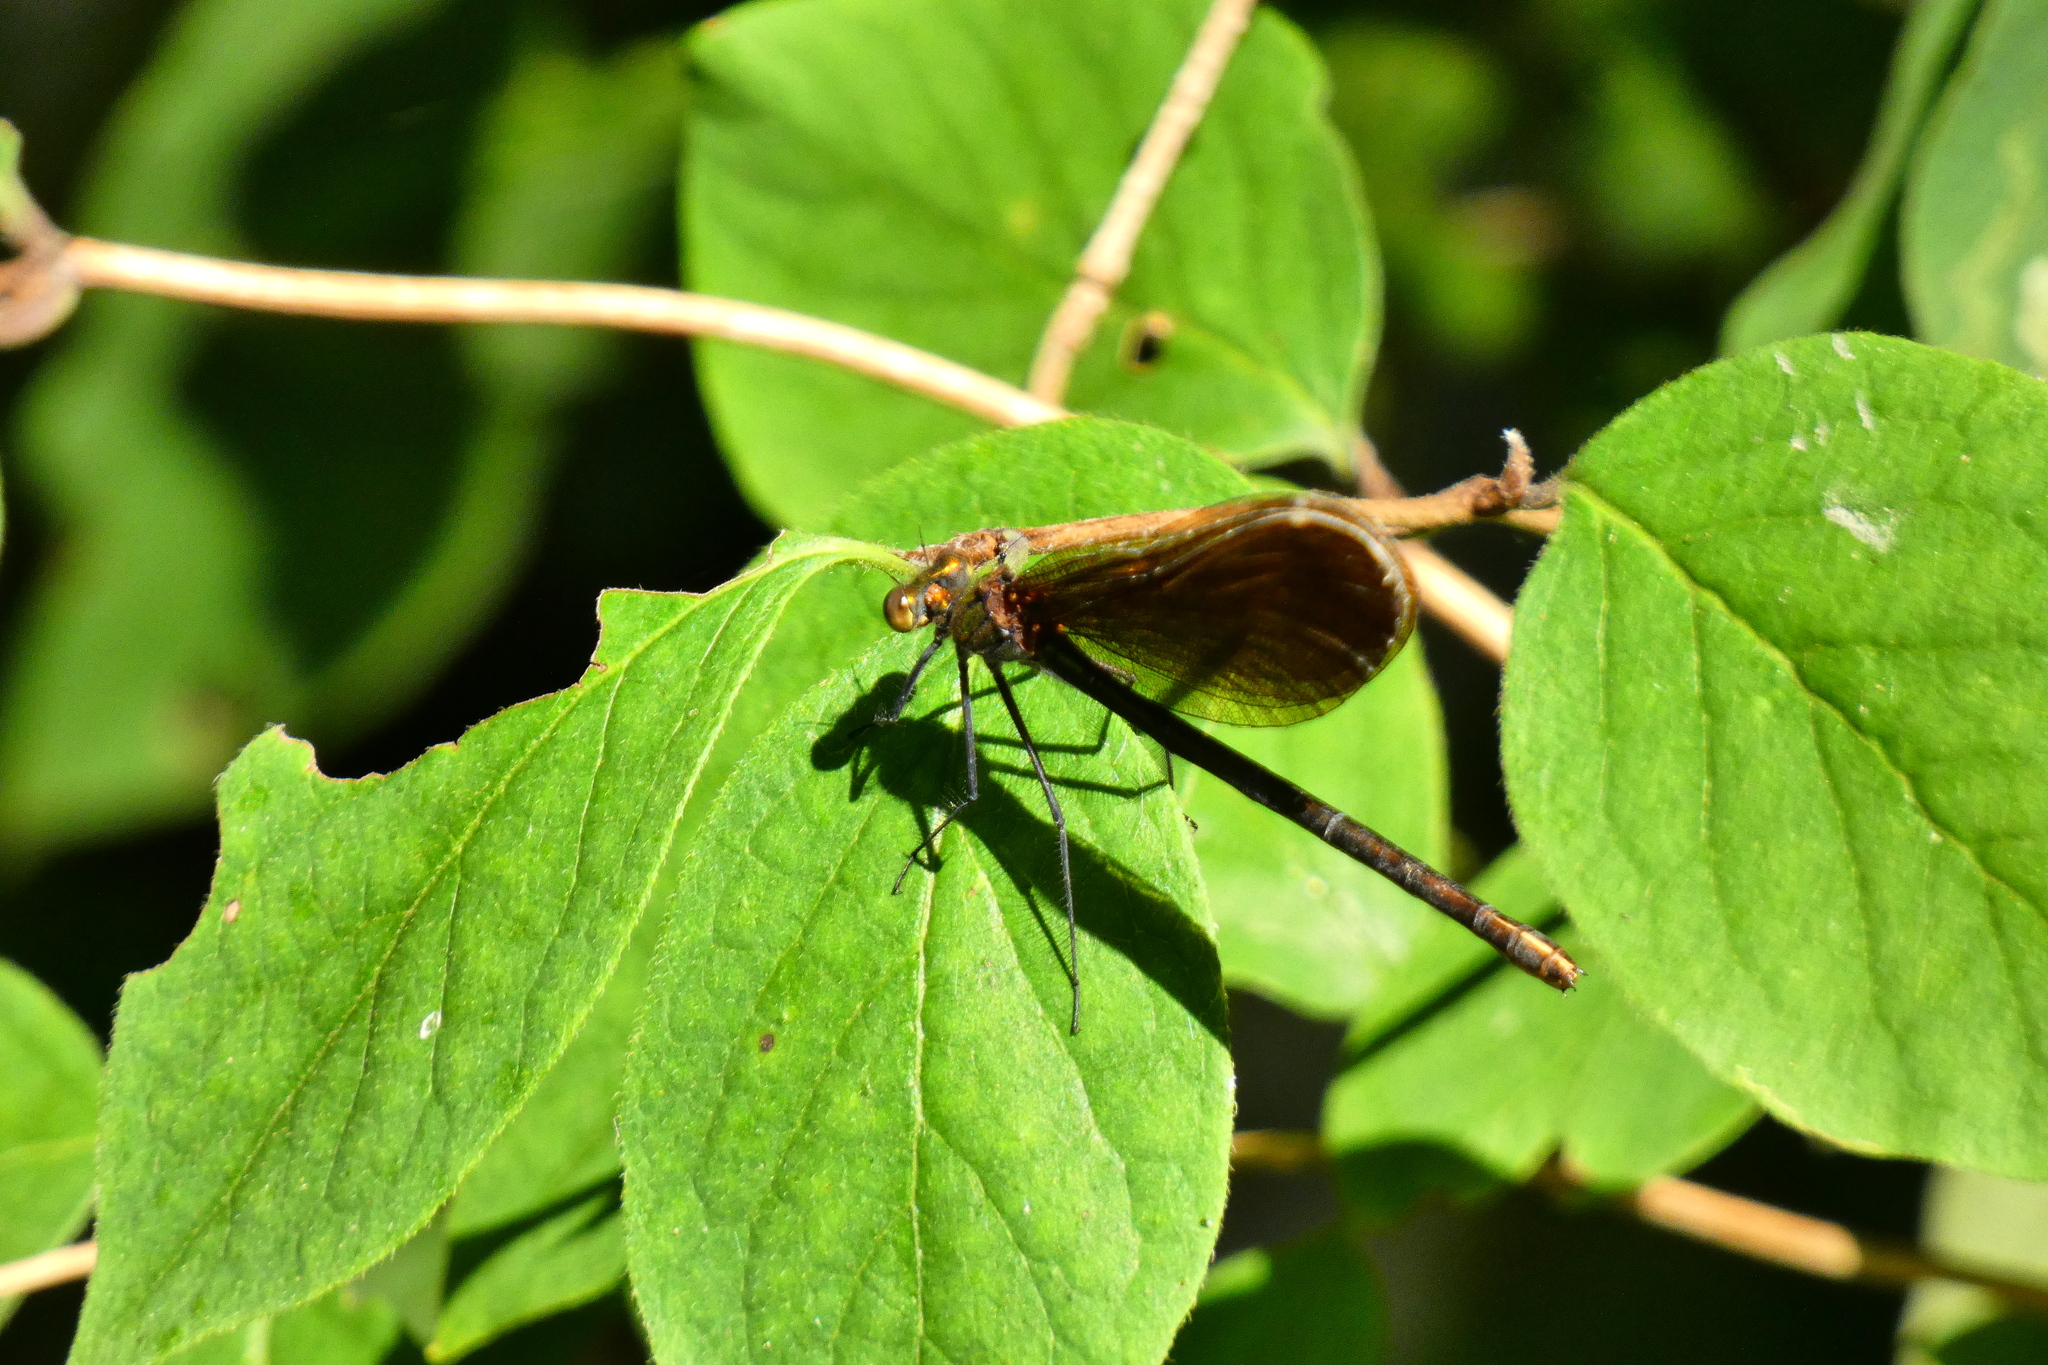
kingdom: Animalia
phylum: Arthropoda
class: Insecta
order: Odonata
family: Calopterygidae
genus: Calopteryx
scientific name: Calopteryx virgo
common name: Beautiful demoiselle
